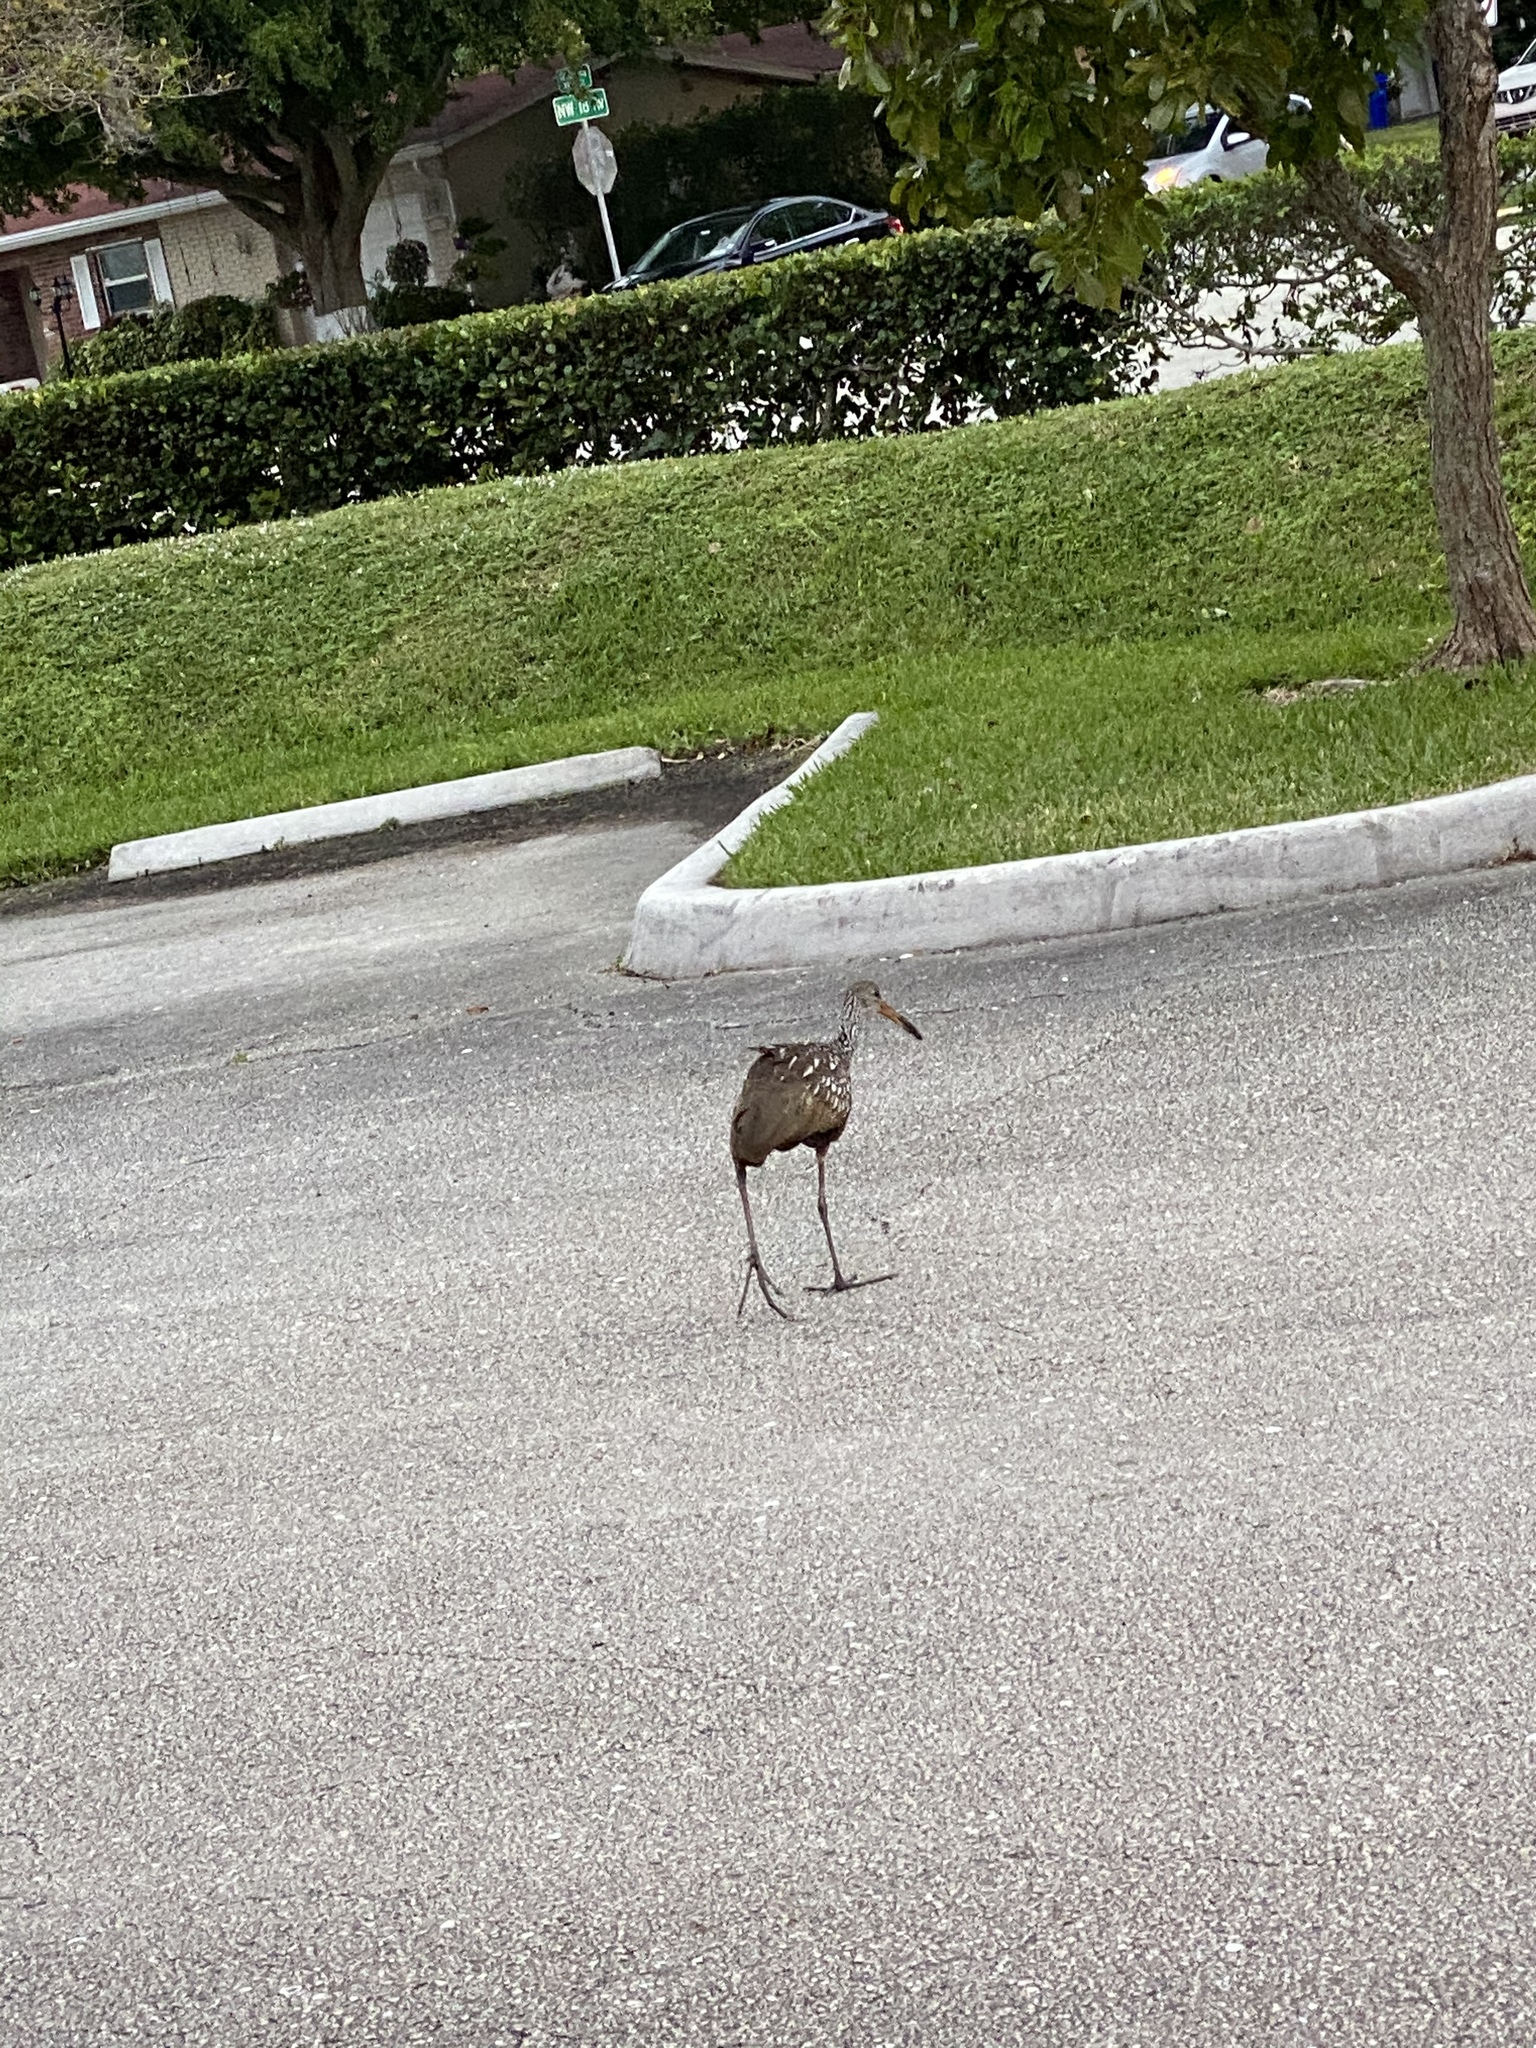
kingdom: Animalia
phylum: Chordata
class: Aves
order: Gruiformes
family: Aramidae
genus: Aramus
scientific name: Aramus guarauna
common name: Limpkin
